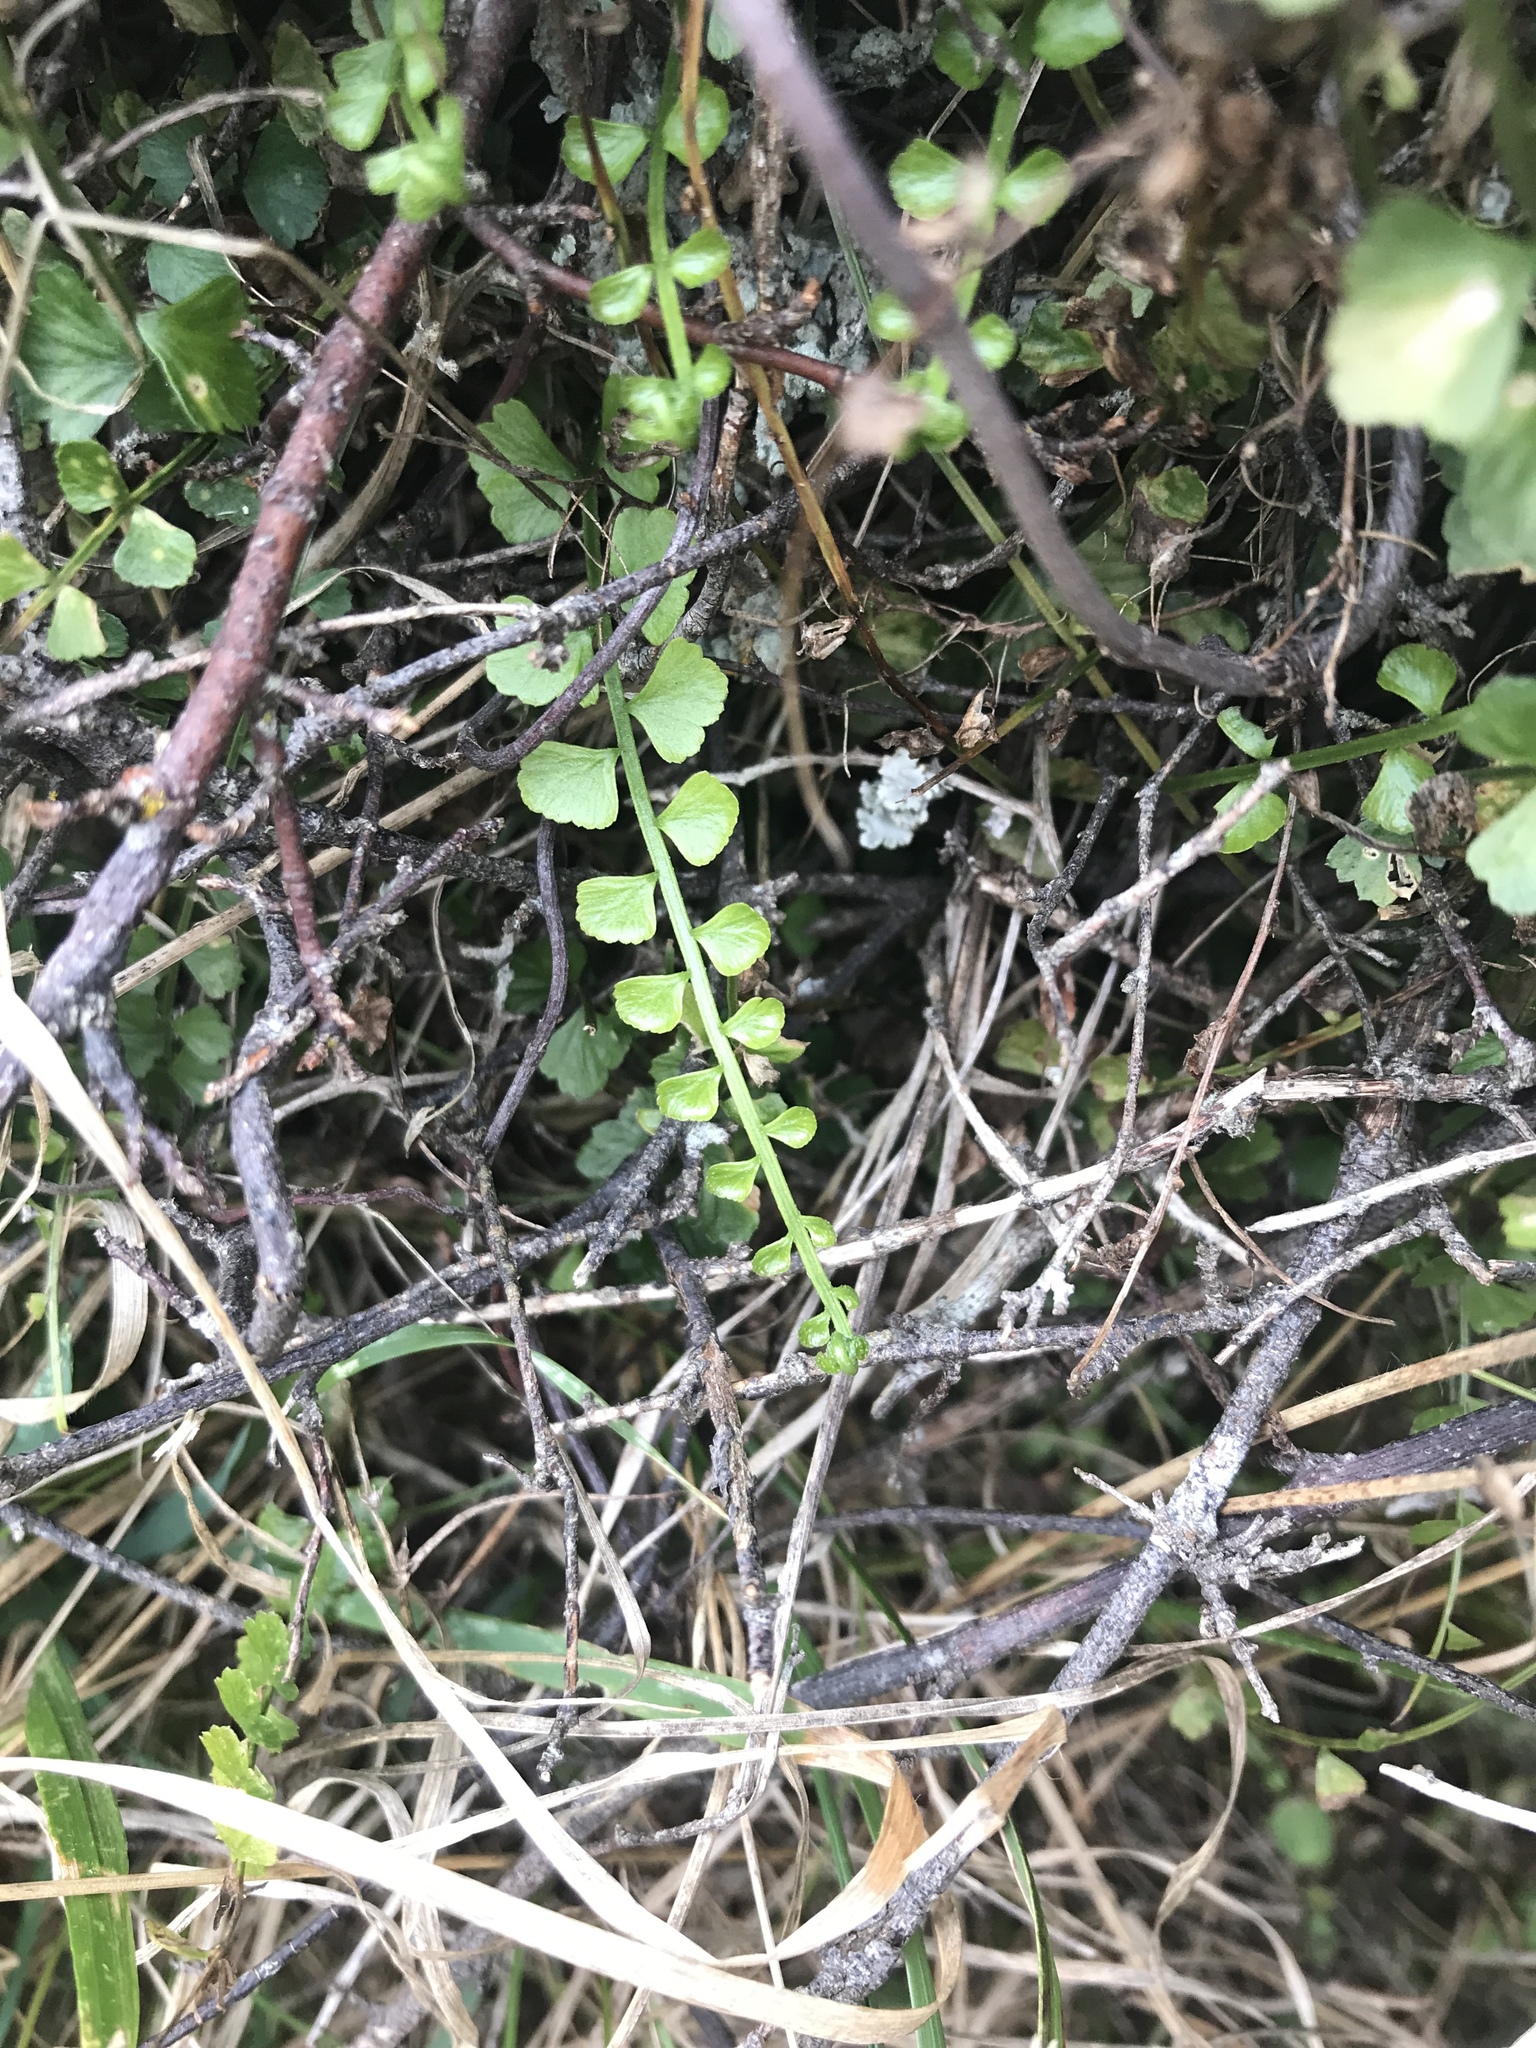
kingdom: Plantae
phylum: Tracheophyta
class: Polypodiopsida
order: Polypodiales
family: Aspleniaceae
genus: Asplenium
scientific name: Asplenium flabellifolium
